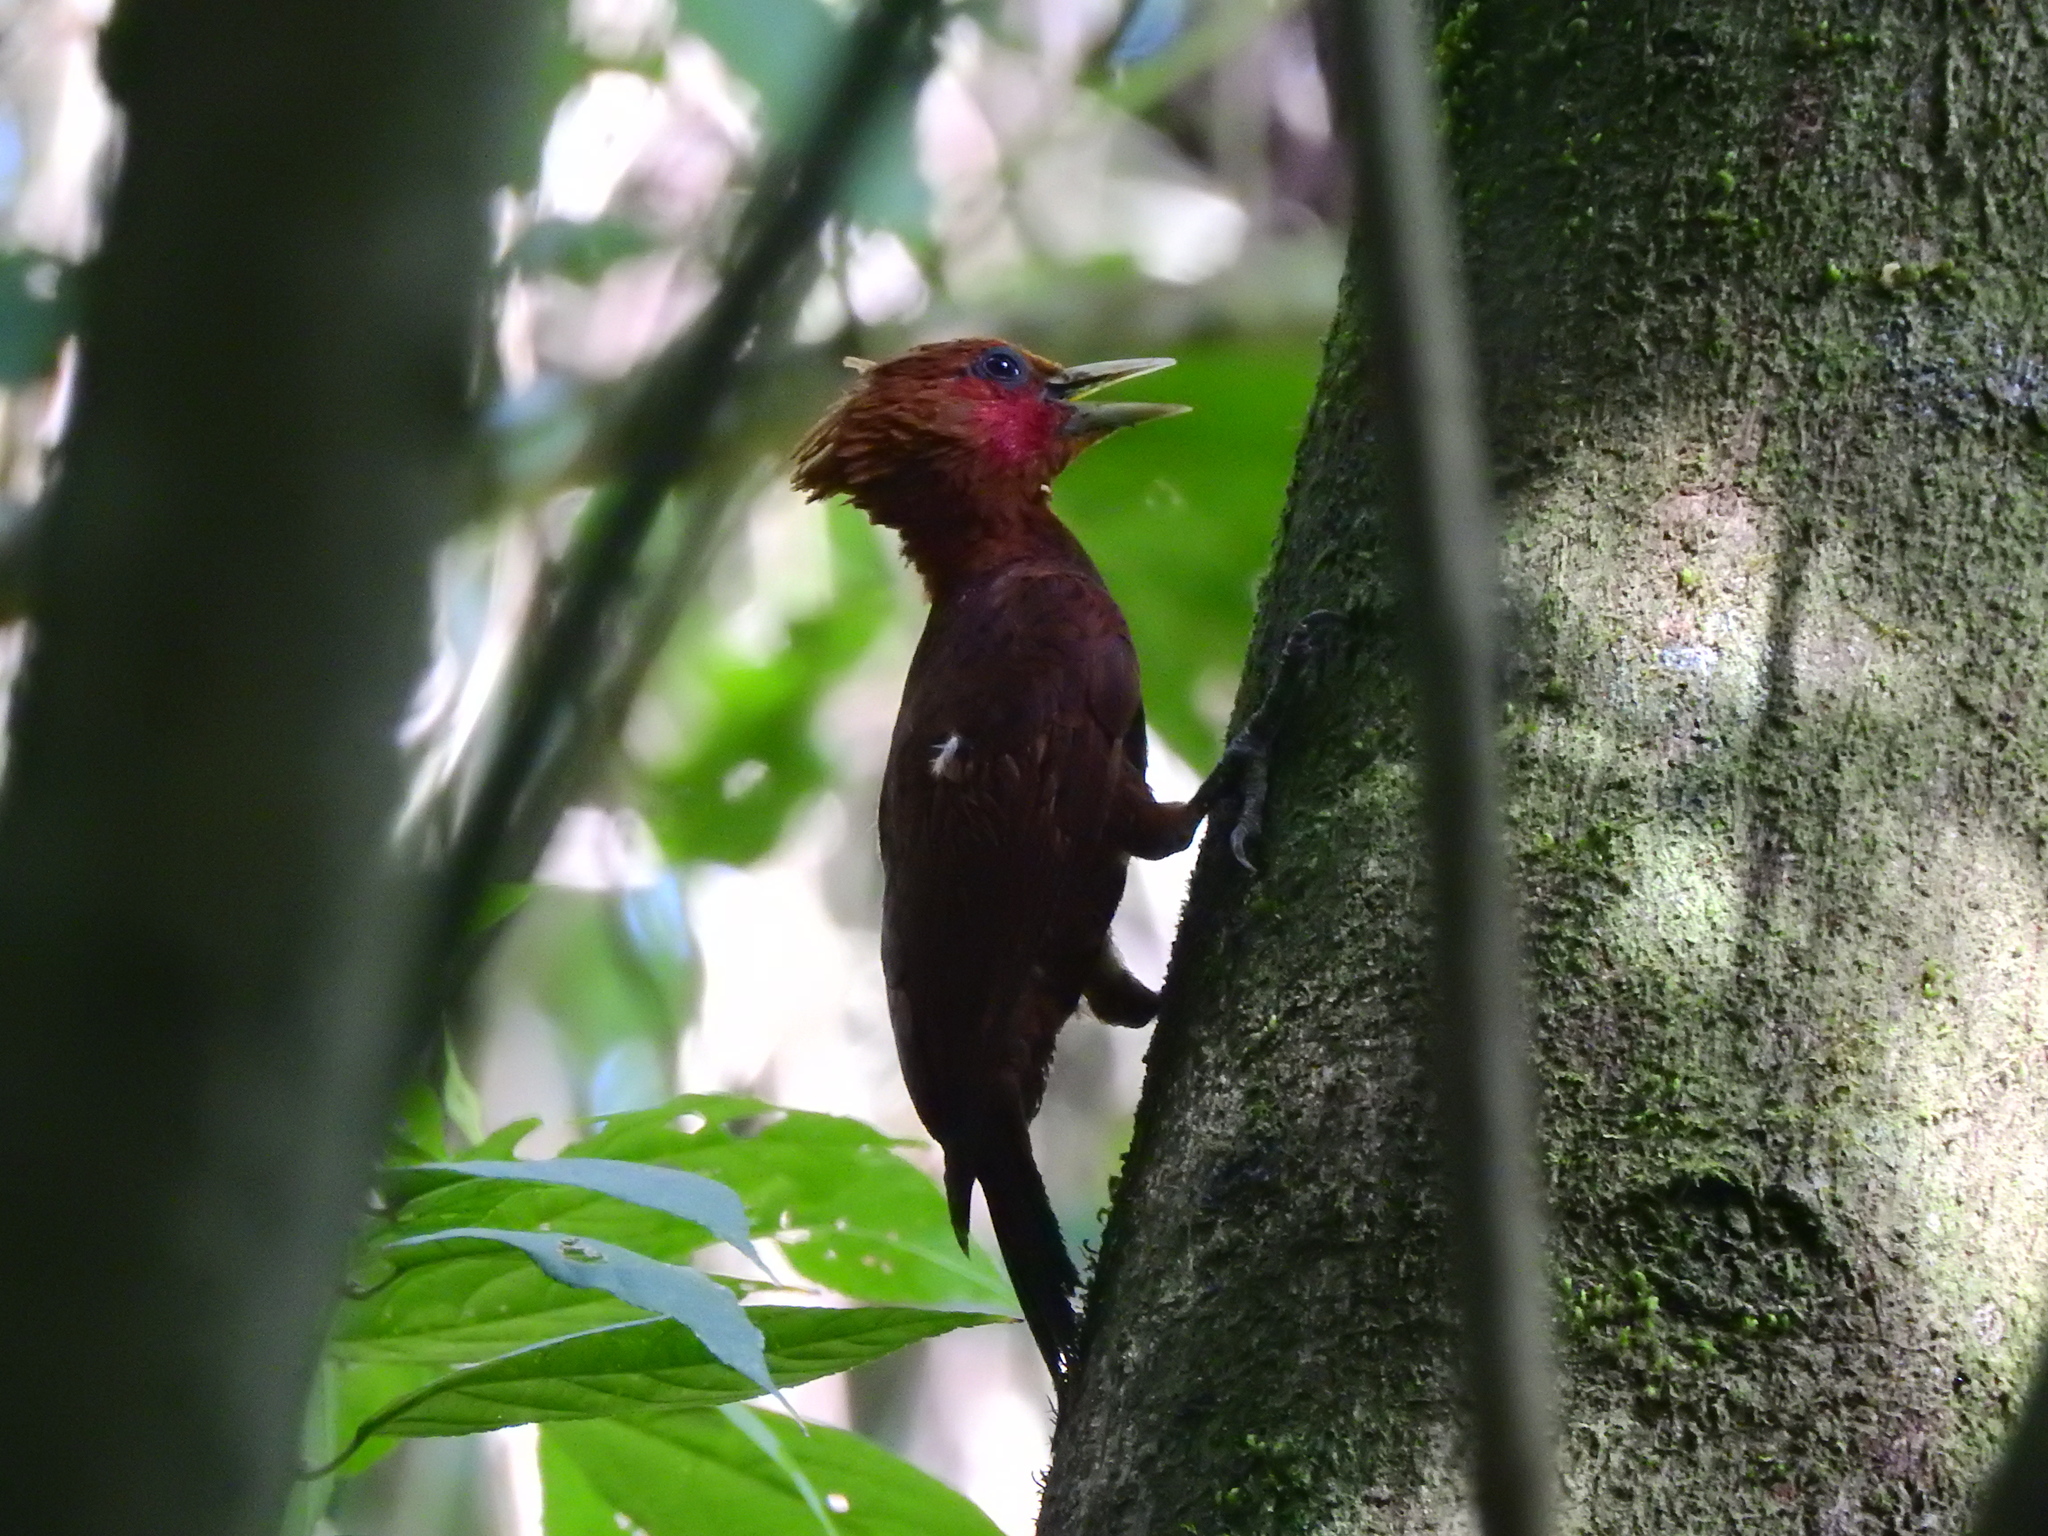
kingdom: Animalia
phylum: Chordata
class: Aves
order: Piciformes
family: Picidae
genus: Celeus
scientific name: Celeus castaneus
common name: Chestnut-colored woodpecker
